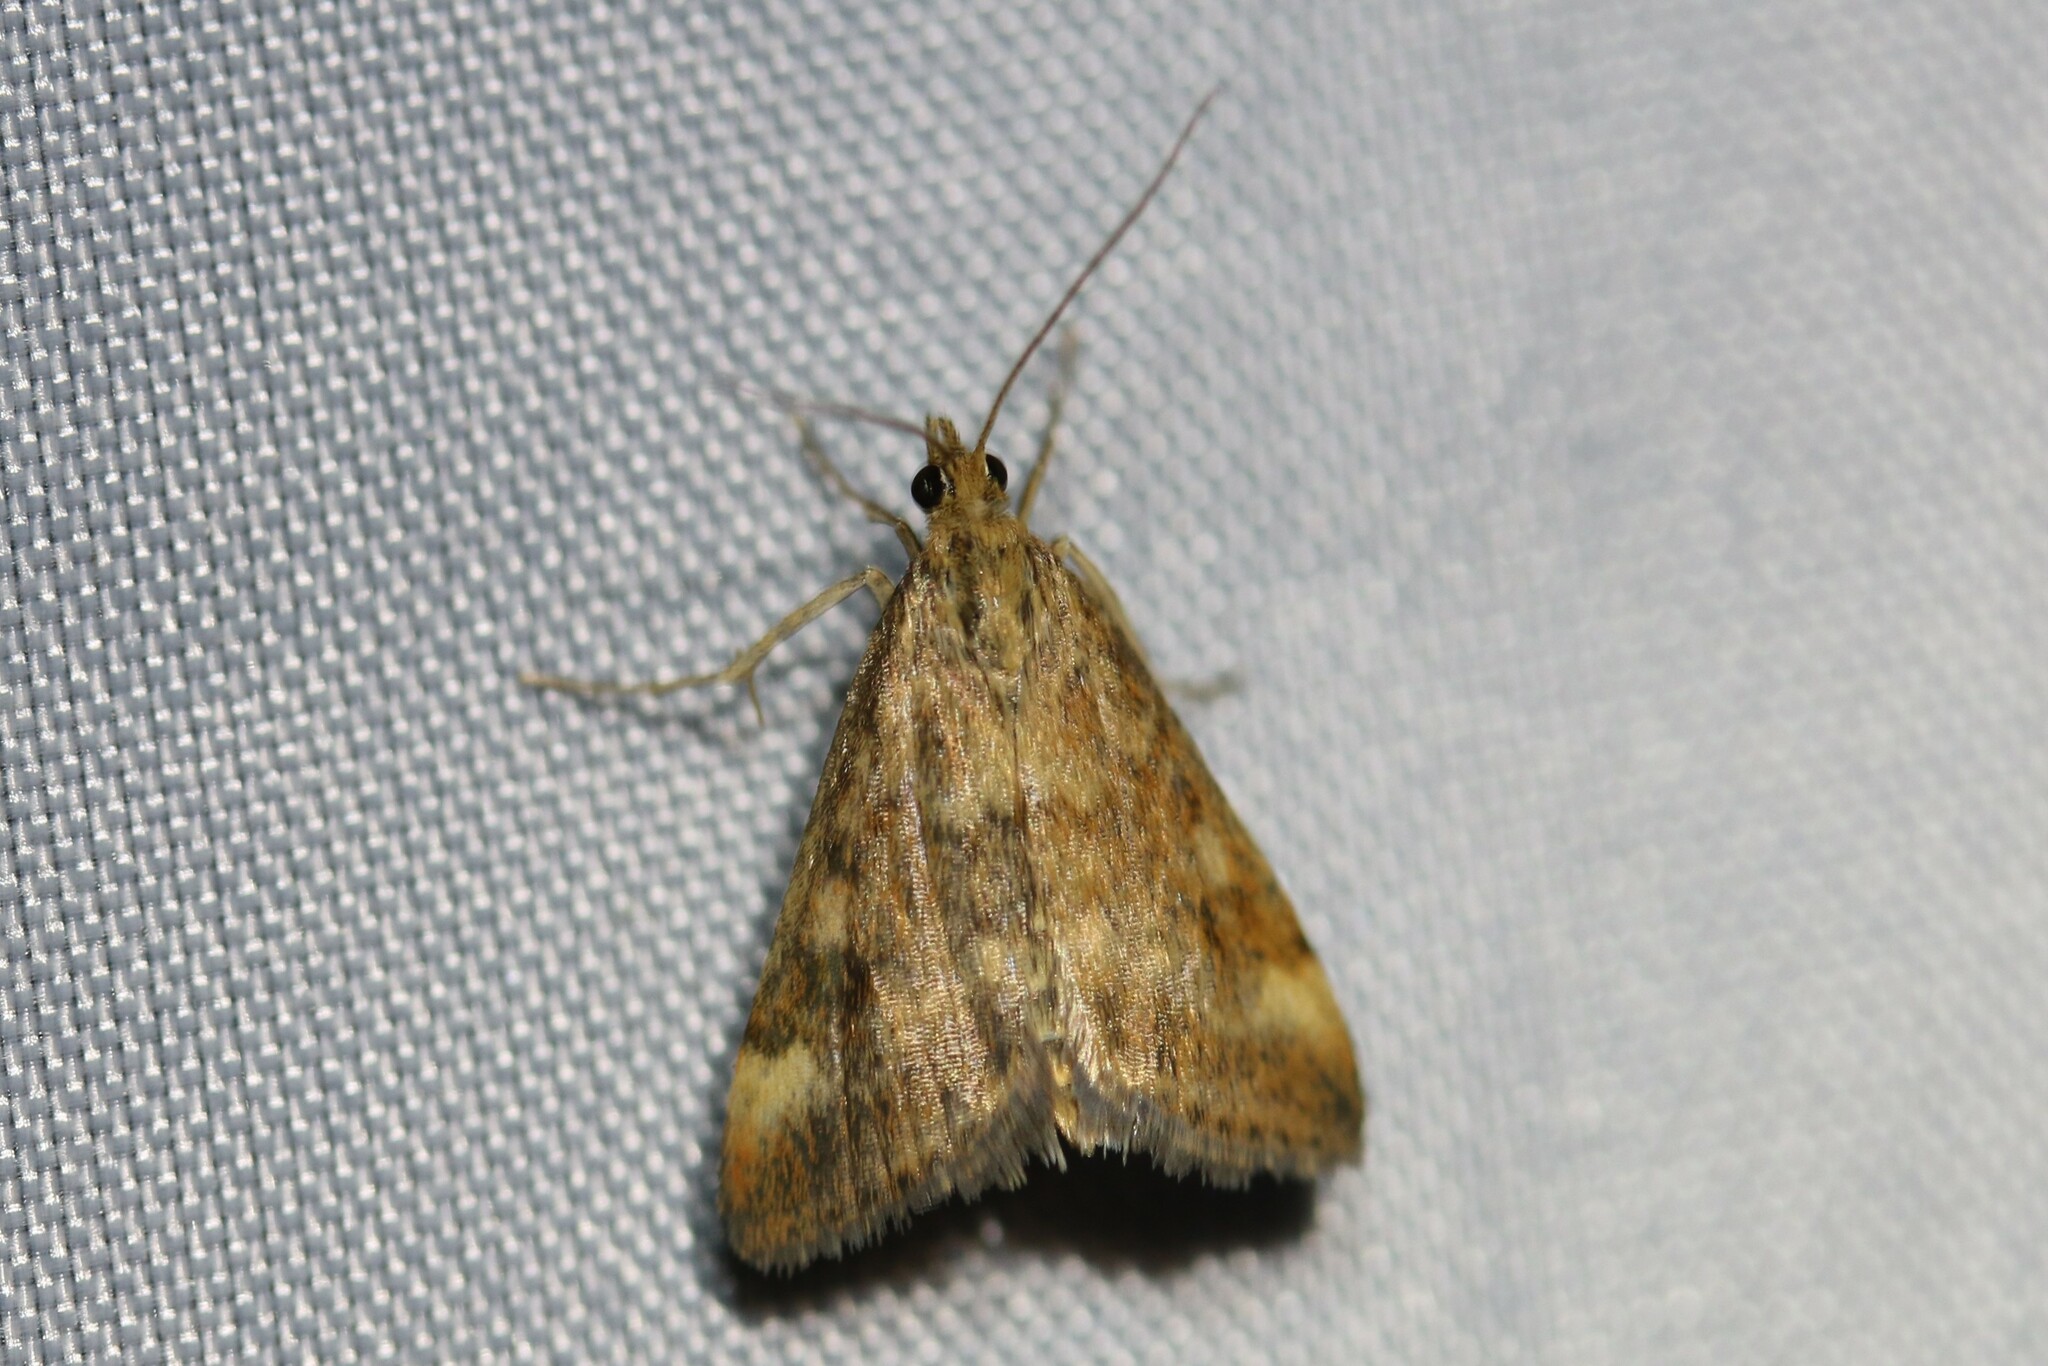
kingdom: Animalia
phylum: Arthropoda
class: Insecta
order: Lepidoptera
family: Crambidae
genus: Pyrausta
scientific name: Pyrausta despicata
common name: Straw-barred pearl
